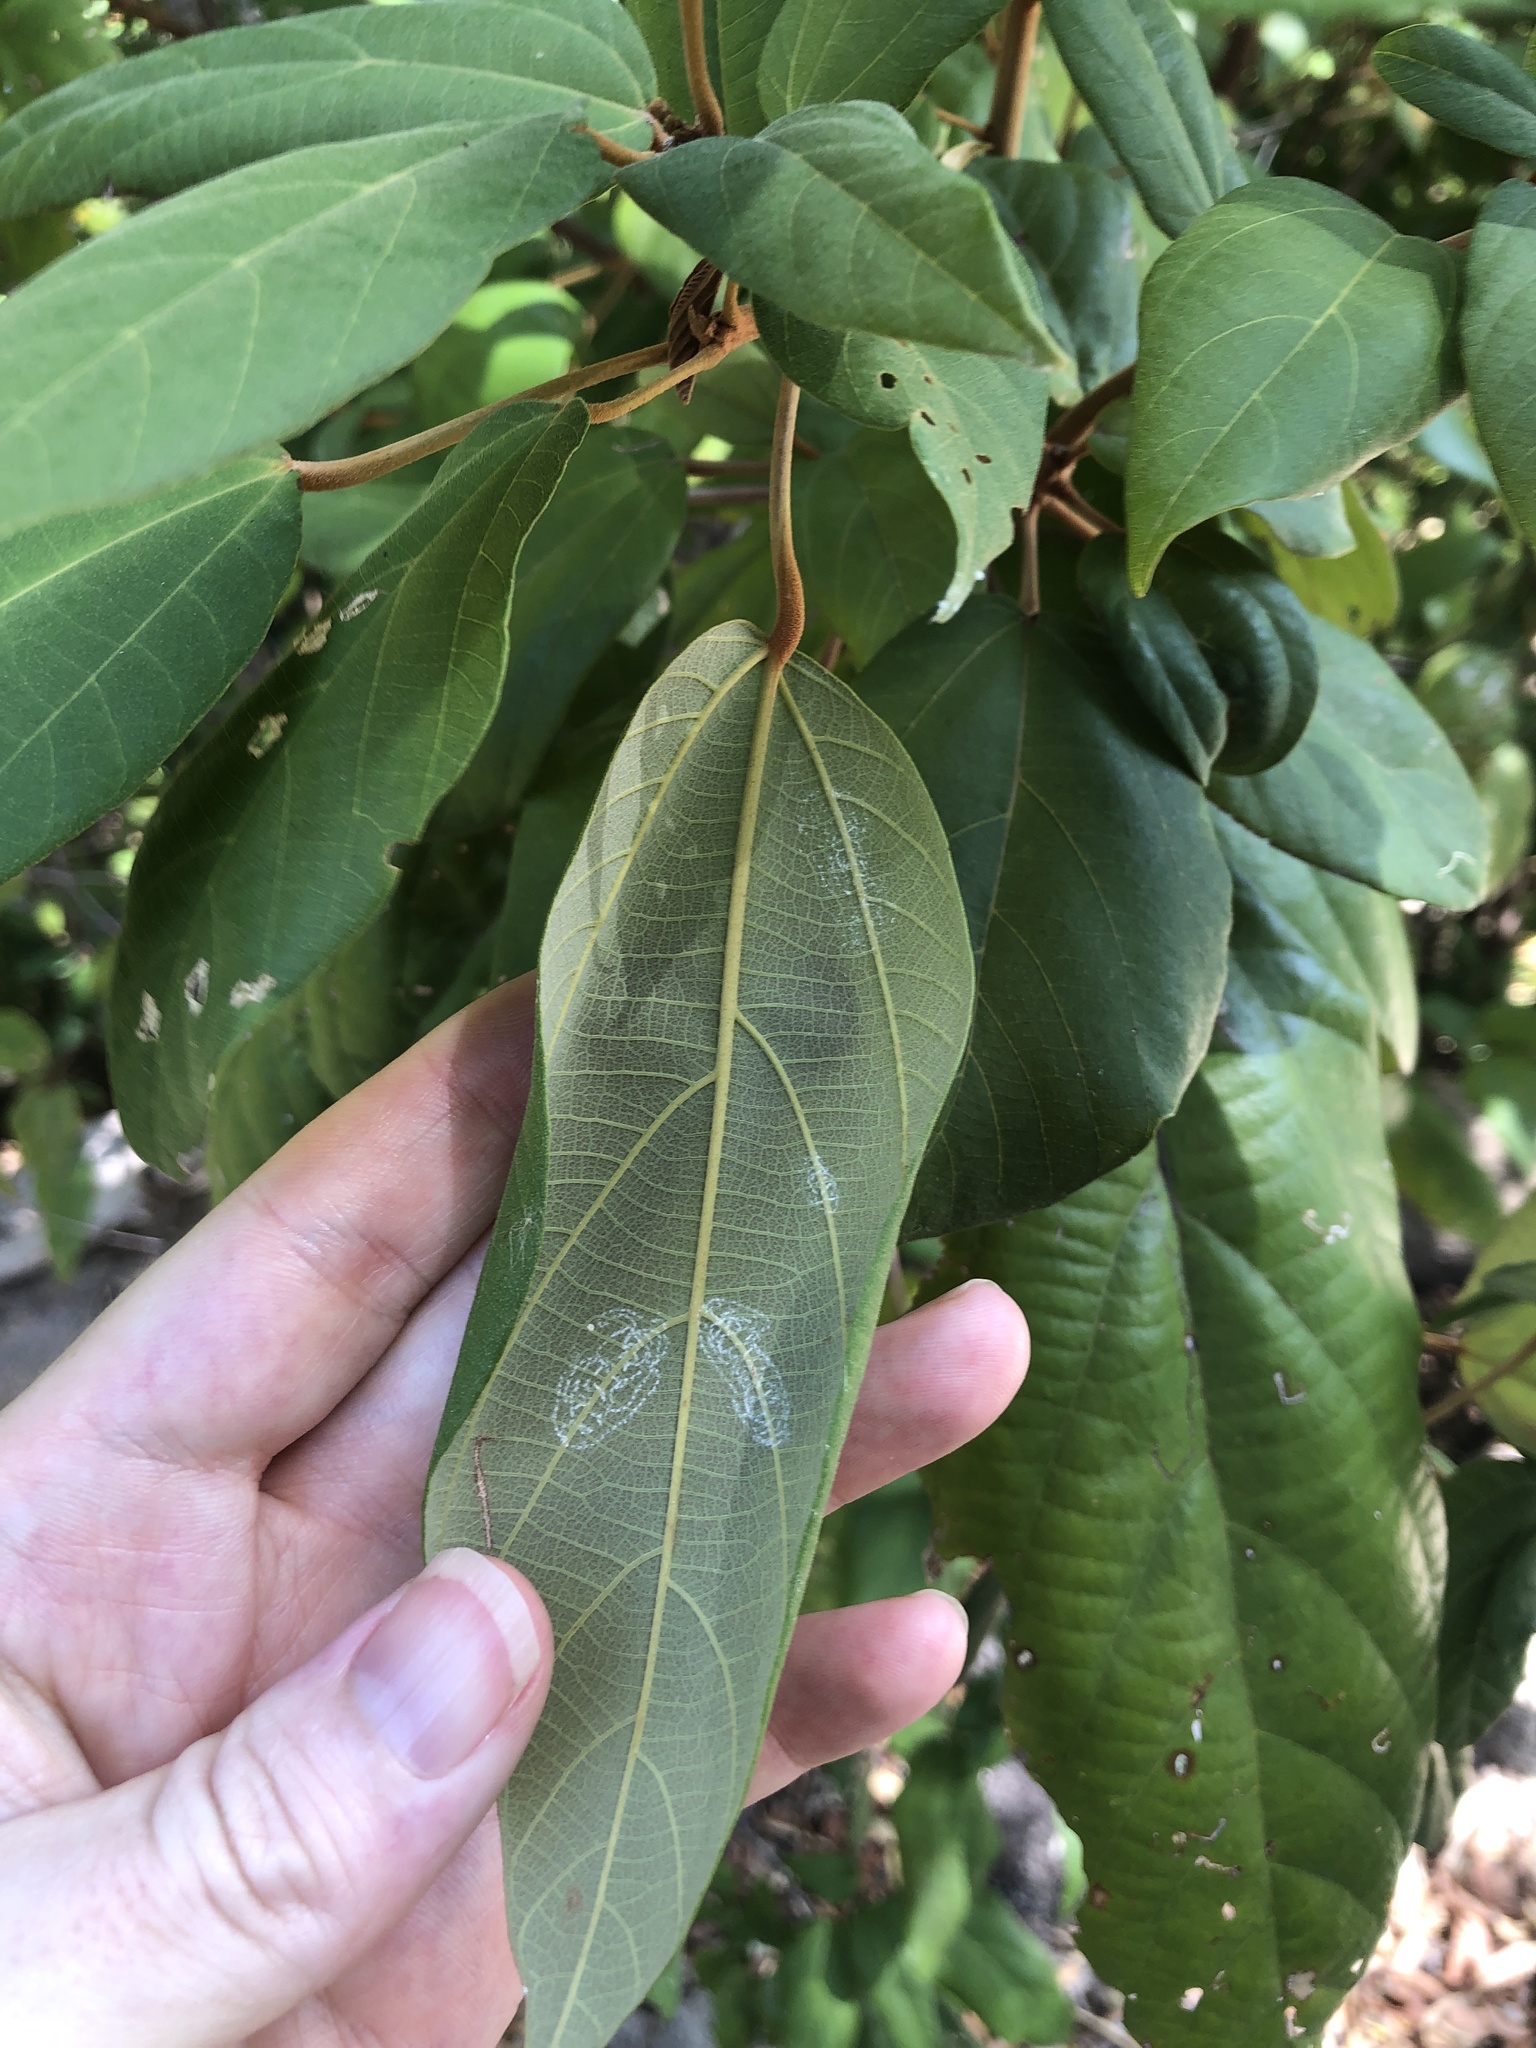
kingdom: Plantae
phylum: Tracheophyta
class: Magnoliopsida
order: Malpighiales
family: Euphorbiaceae
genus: Mallotus
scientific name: Mallotus philippensis
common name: Kamala tree
